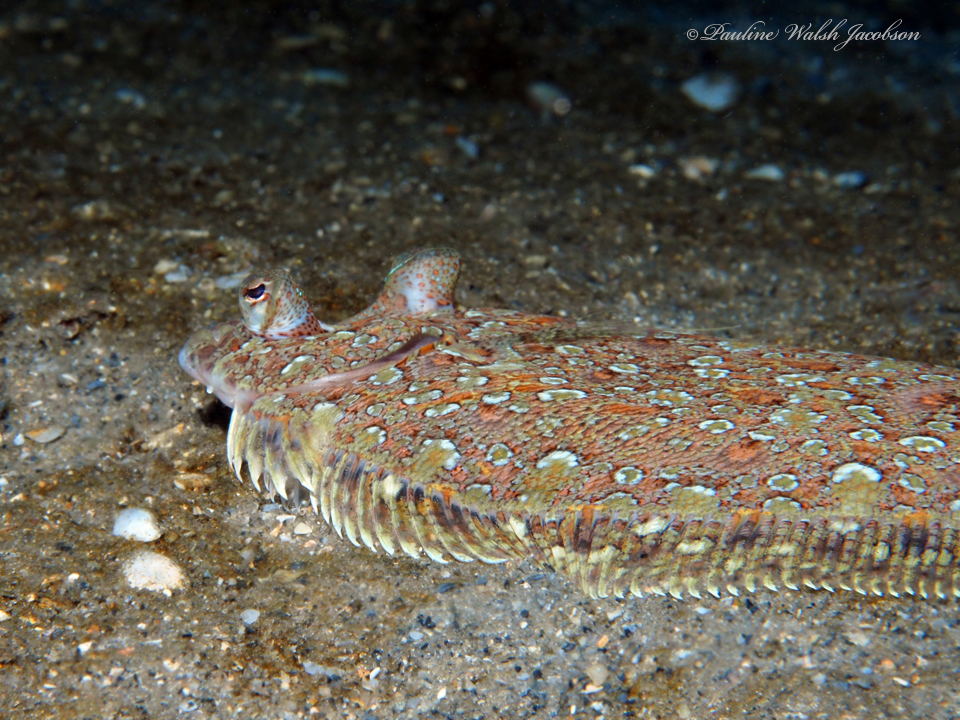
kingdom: Animalia
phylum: Chordata
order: Pleuronectiformes
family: Bothidae
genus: Bothus
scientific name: Bothus ocellatus
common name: Eyed flounder
